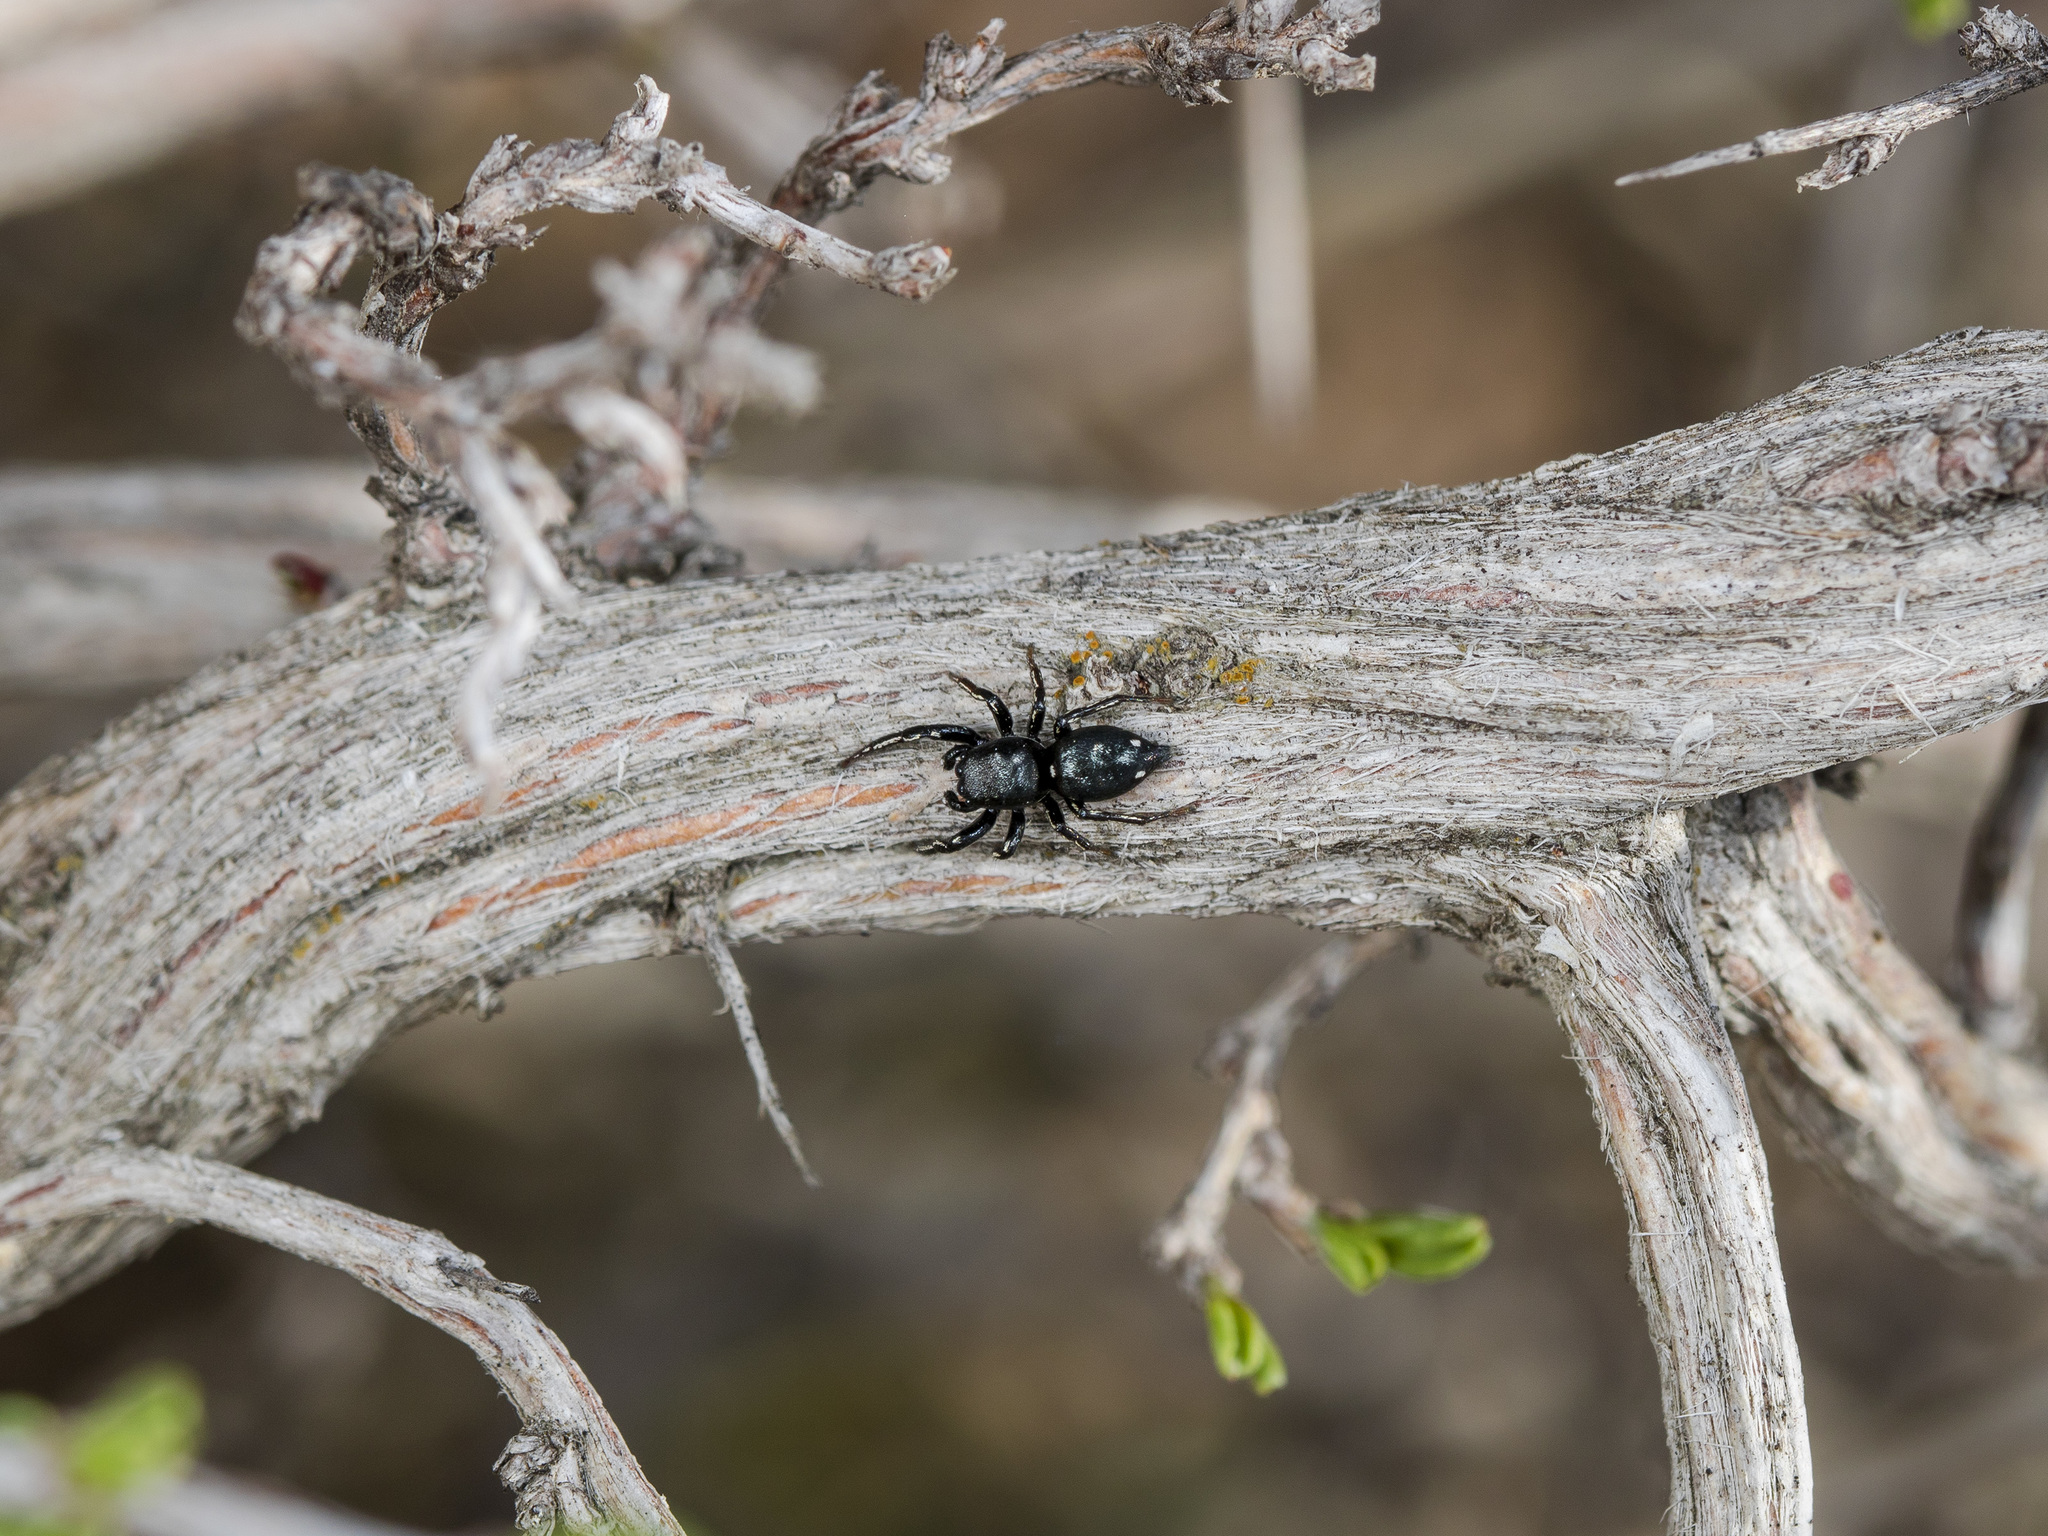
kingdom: Animalia
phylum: Arthropoda
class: Arachnida
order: Araneae
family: Salticidae
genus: Heliophanus
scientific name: Heliophanus chovdensis
